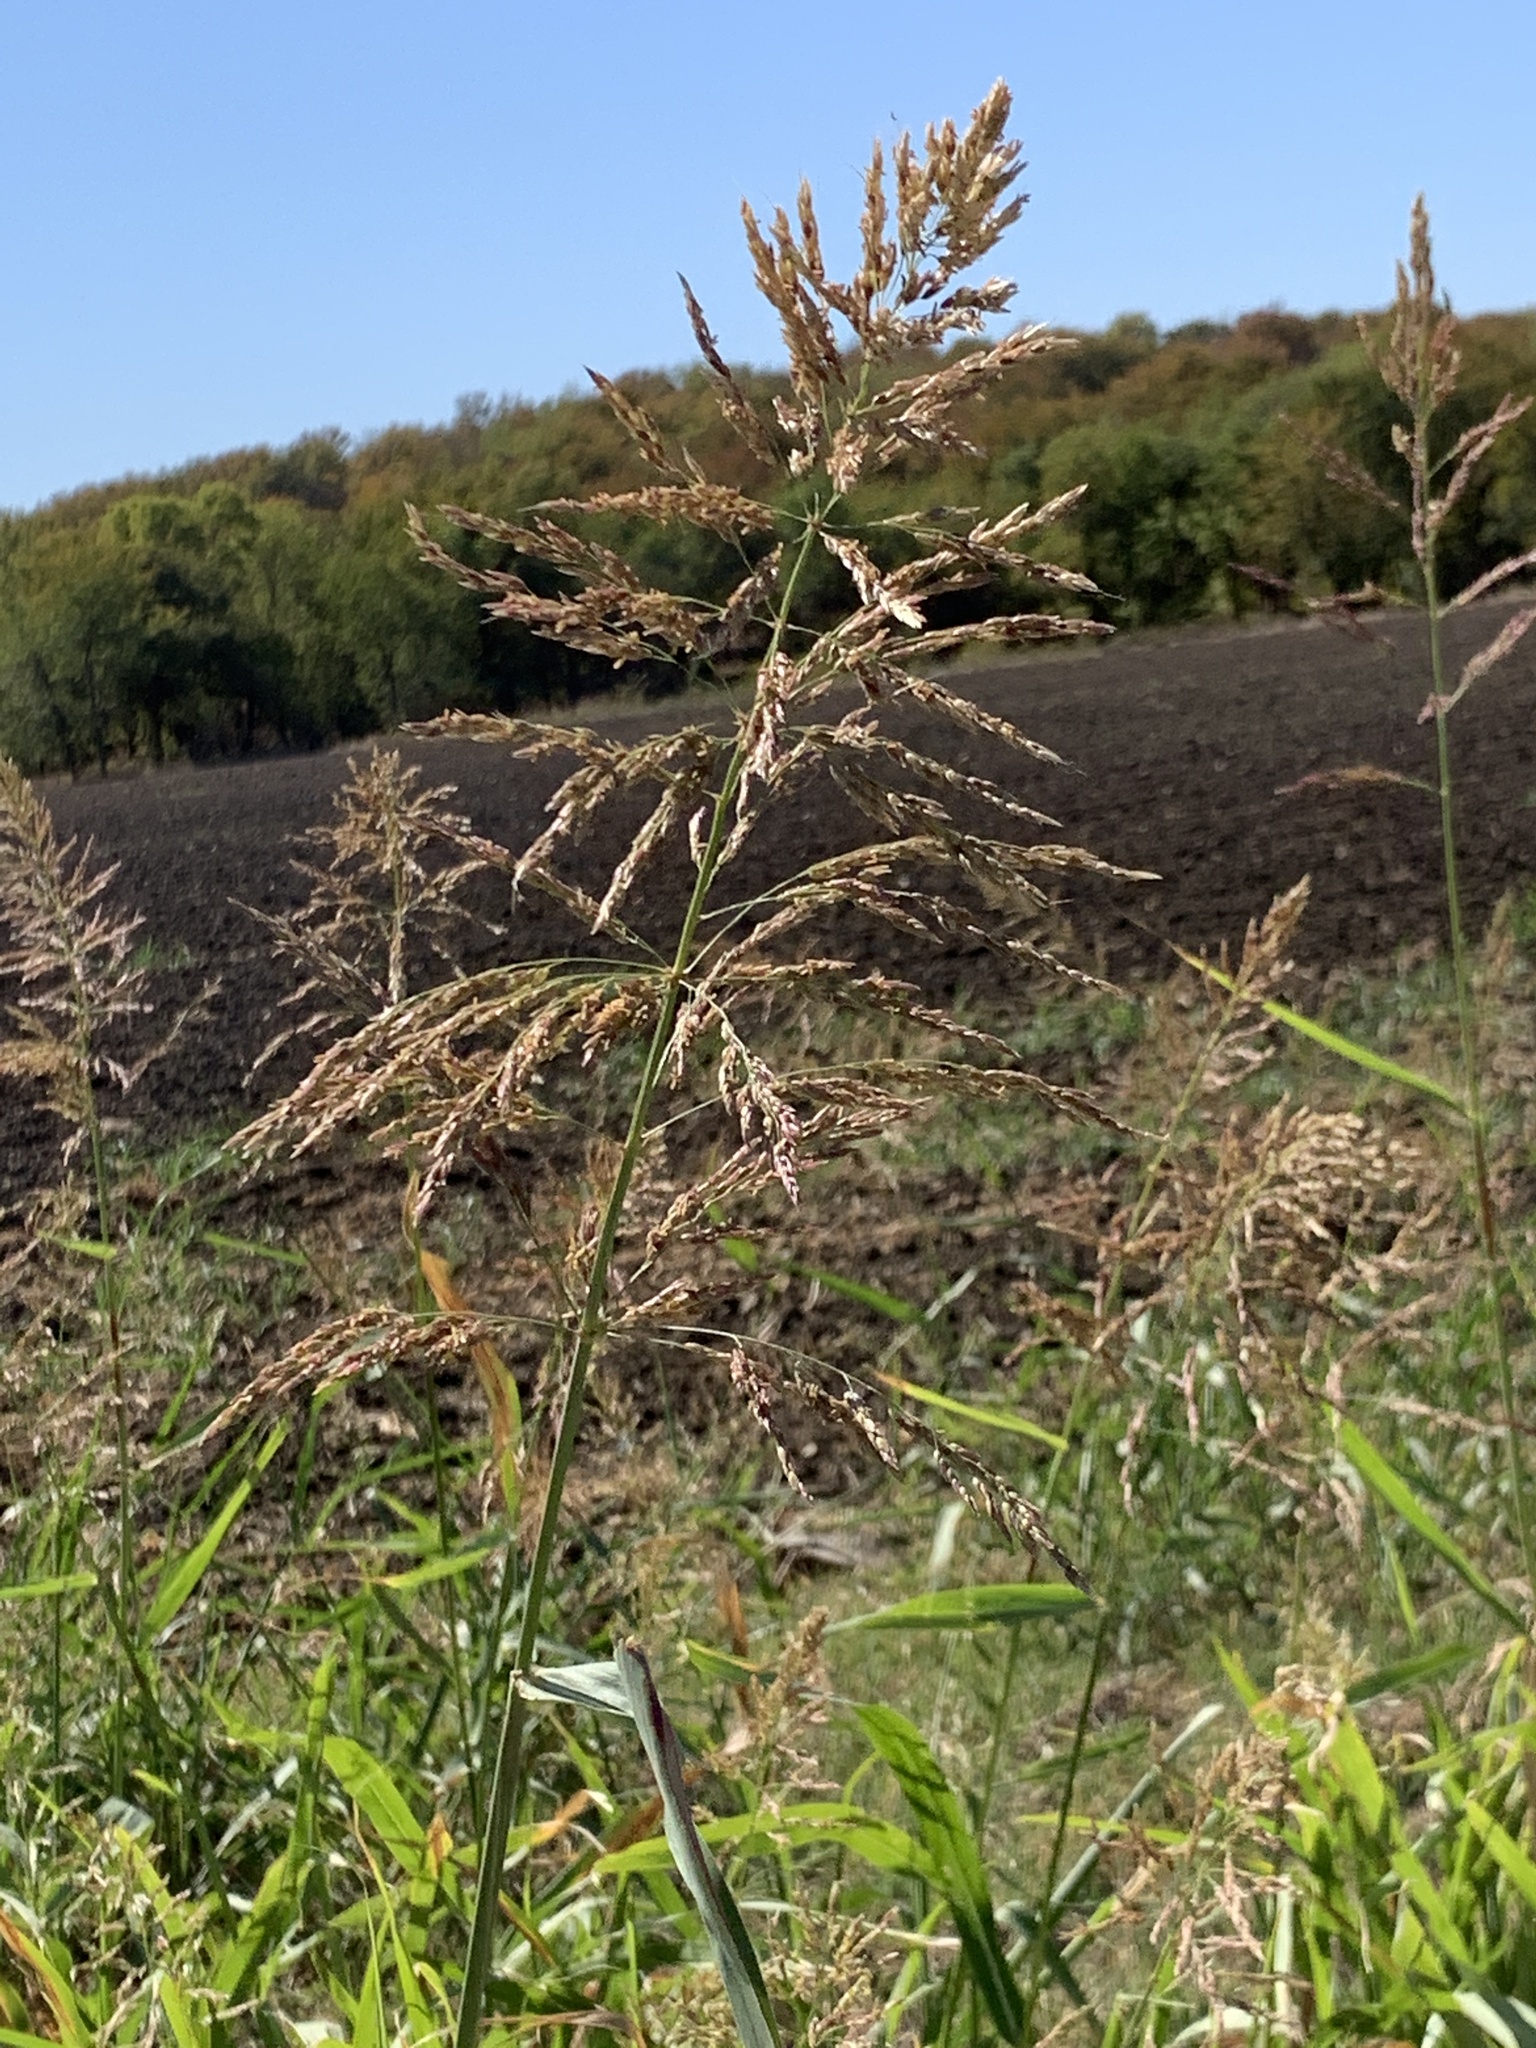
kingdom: Plantae
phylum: Tracheophyta
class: Liliopsida
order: Poales
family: Poaceae
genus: Sorghum
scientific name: Sorghum halepense
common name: Johnson-grass
